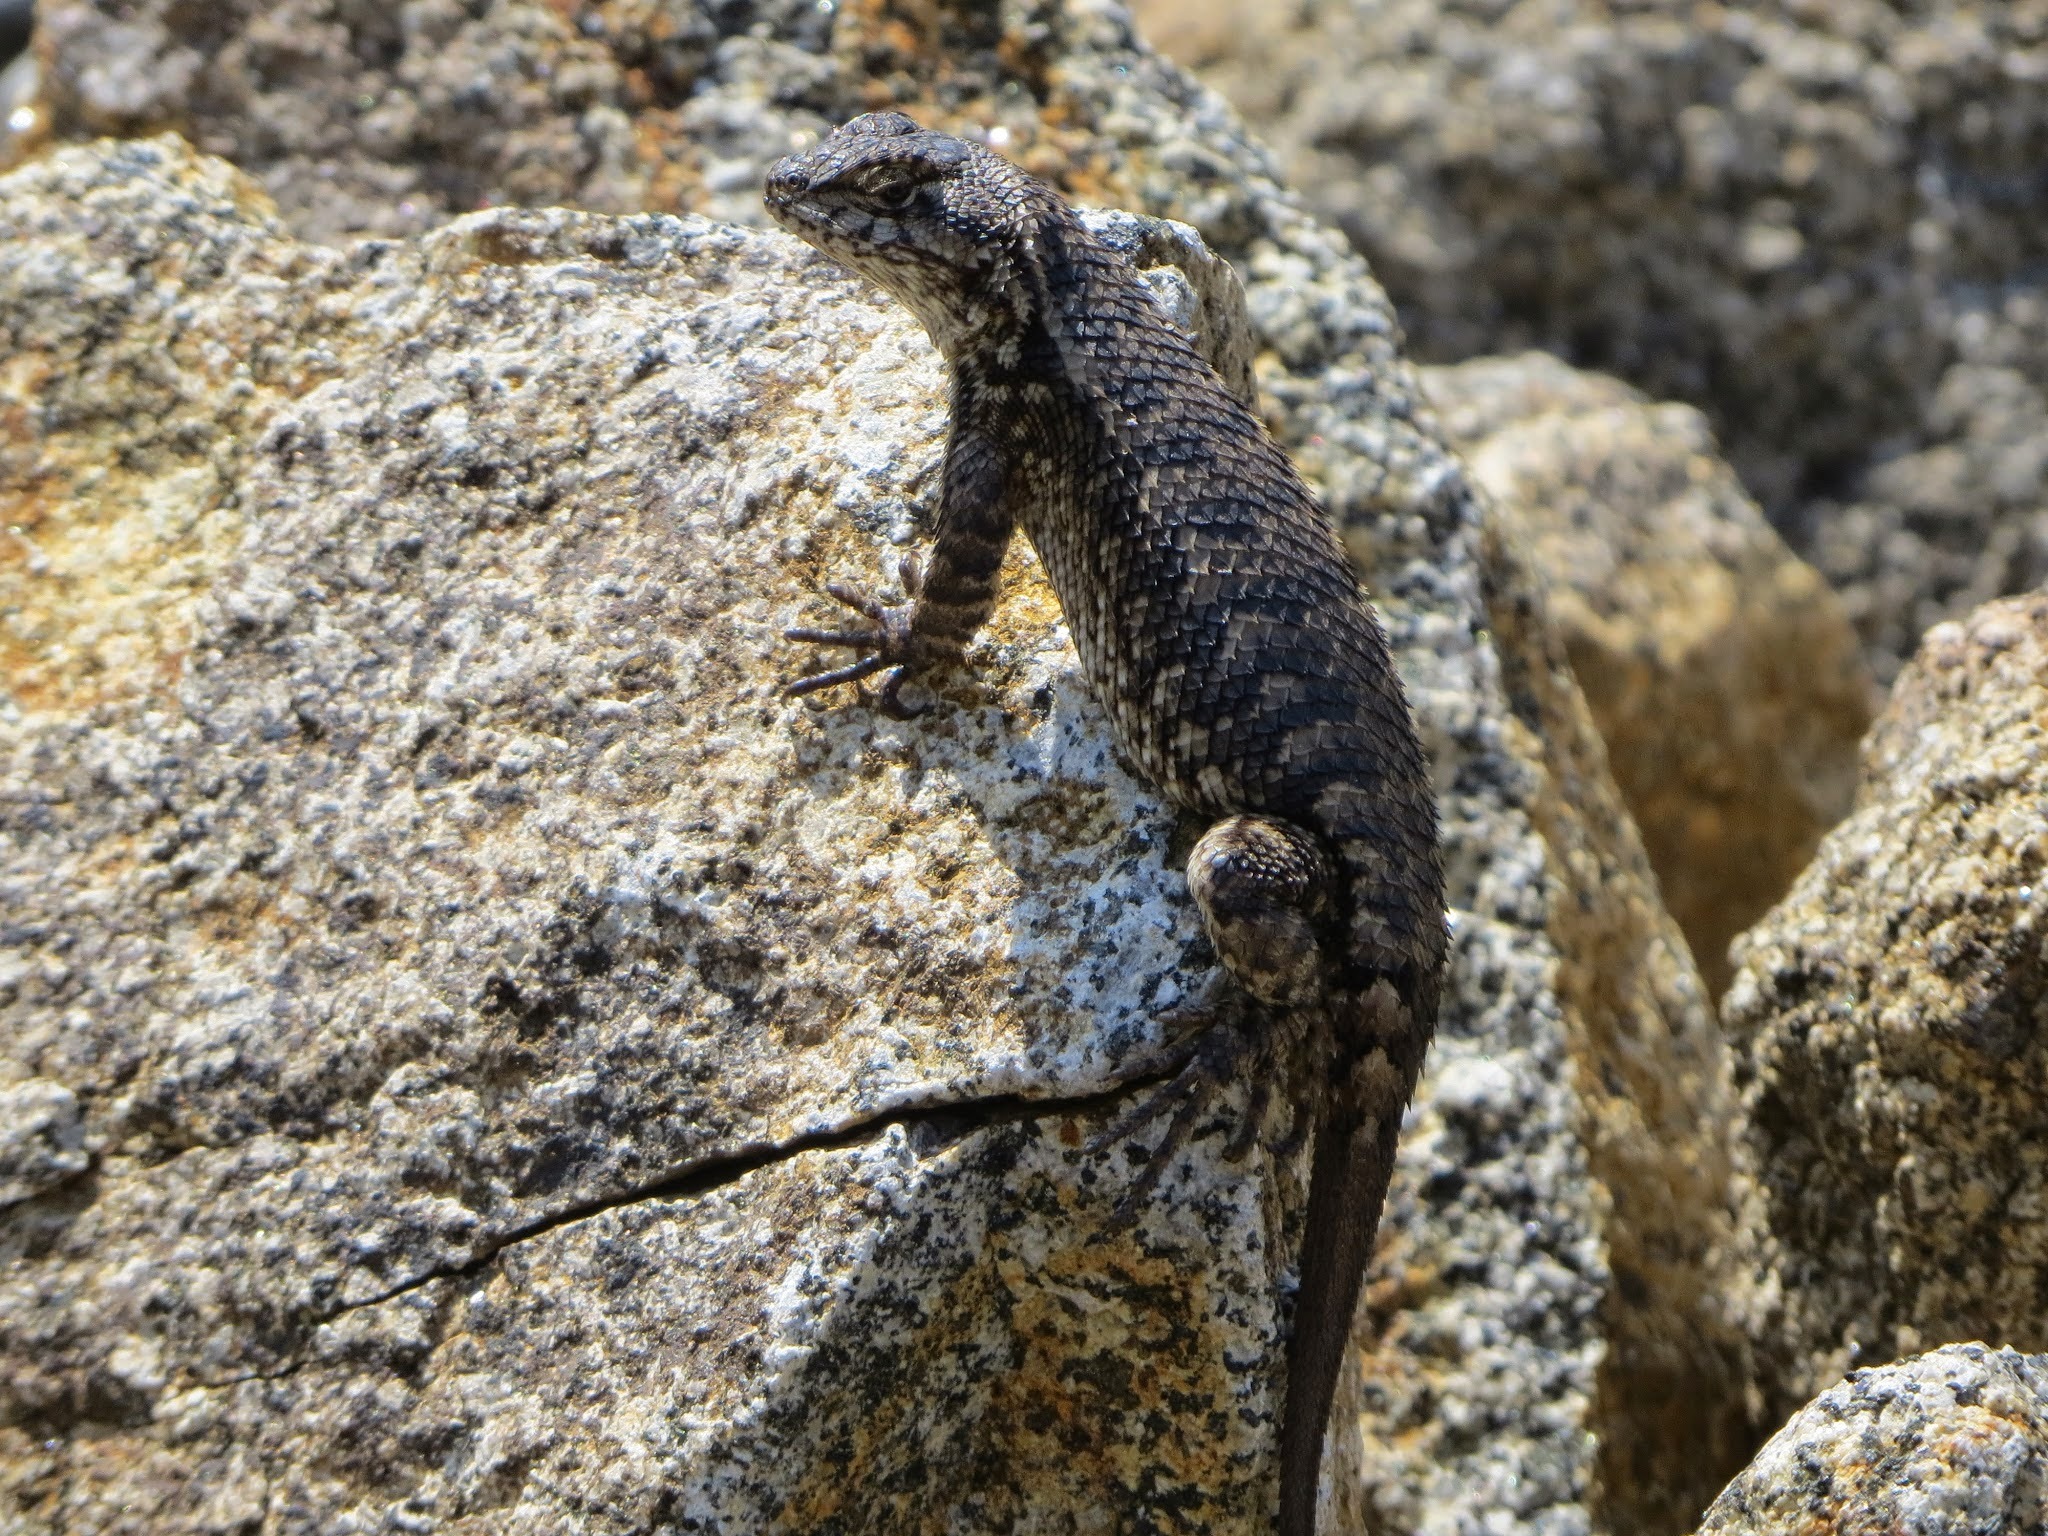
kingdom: Animalia
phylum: Chordata
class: Squamata
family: Phrynosomatidae
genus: Sceloporus
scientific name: Sceloporus occidentalis
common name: Western fence lizard
